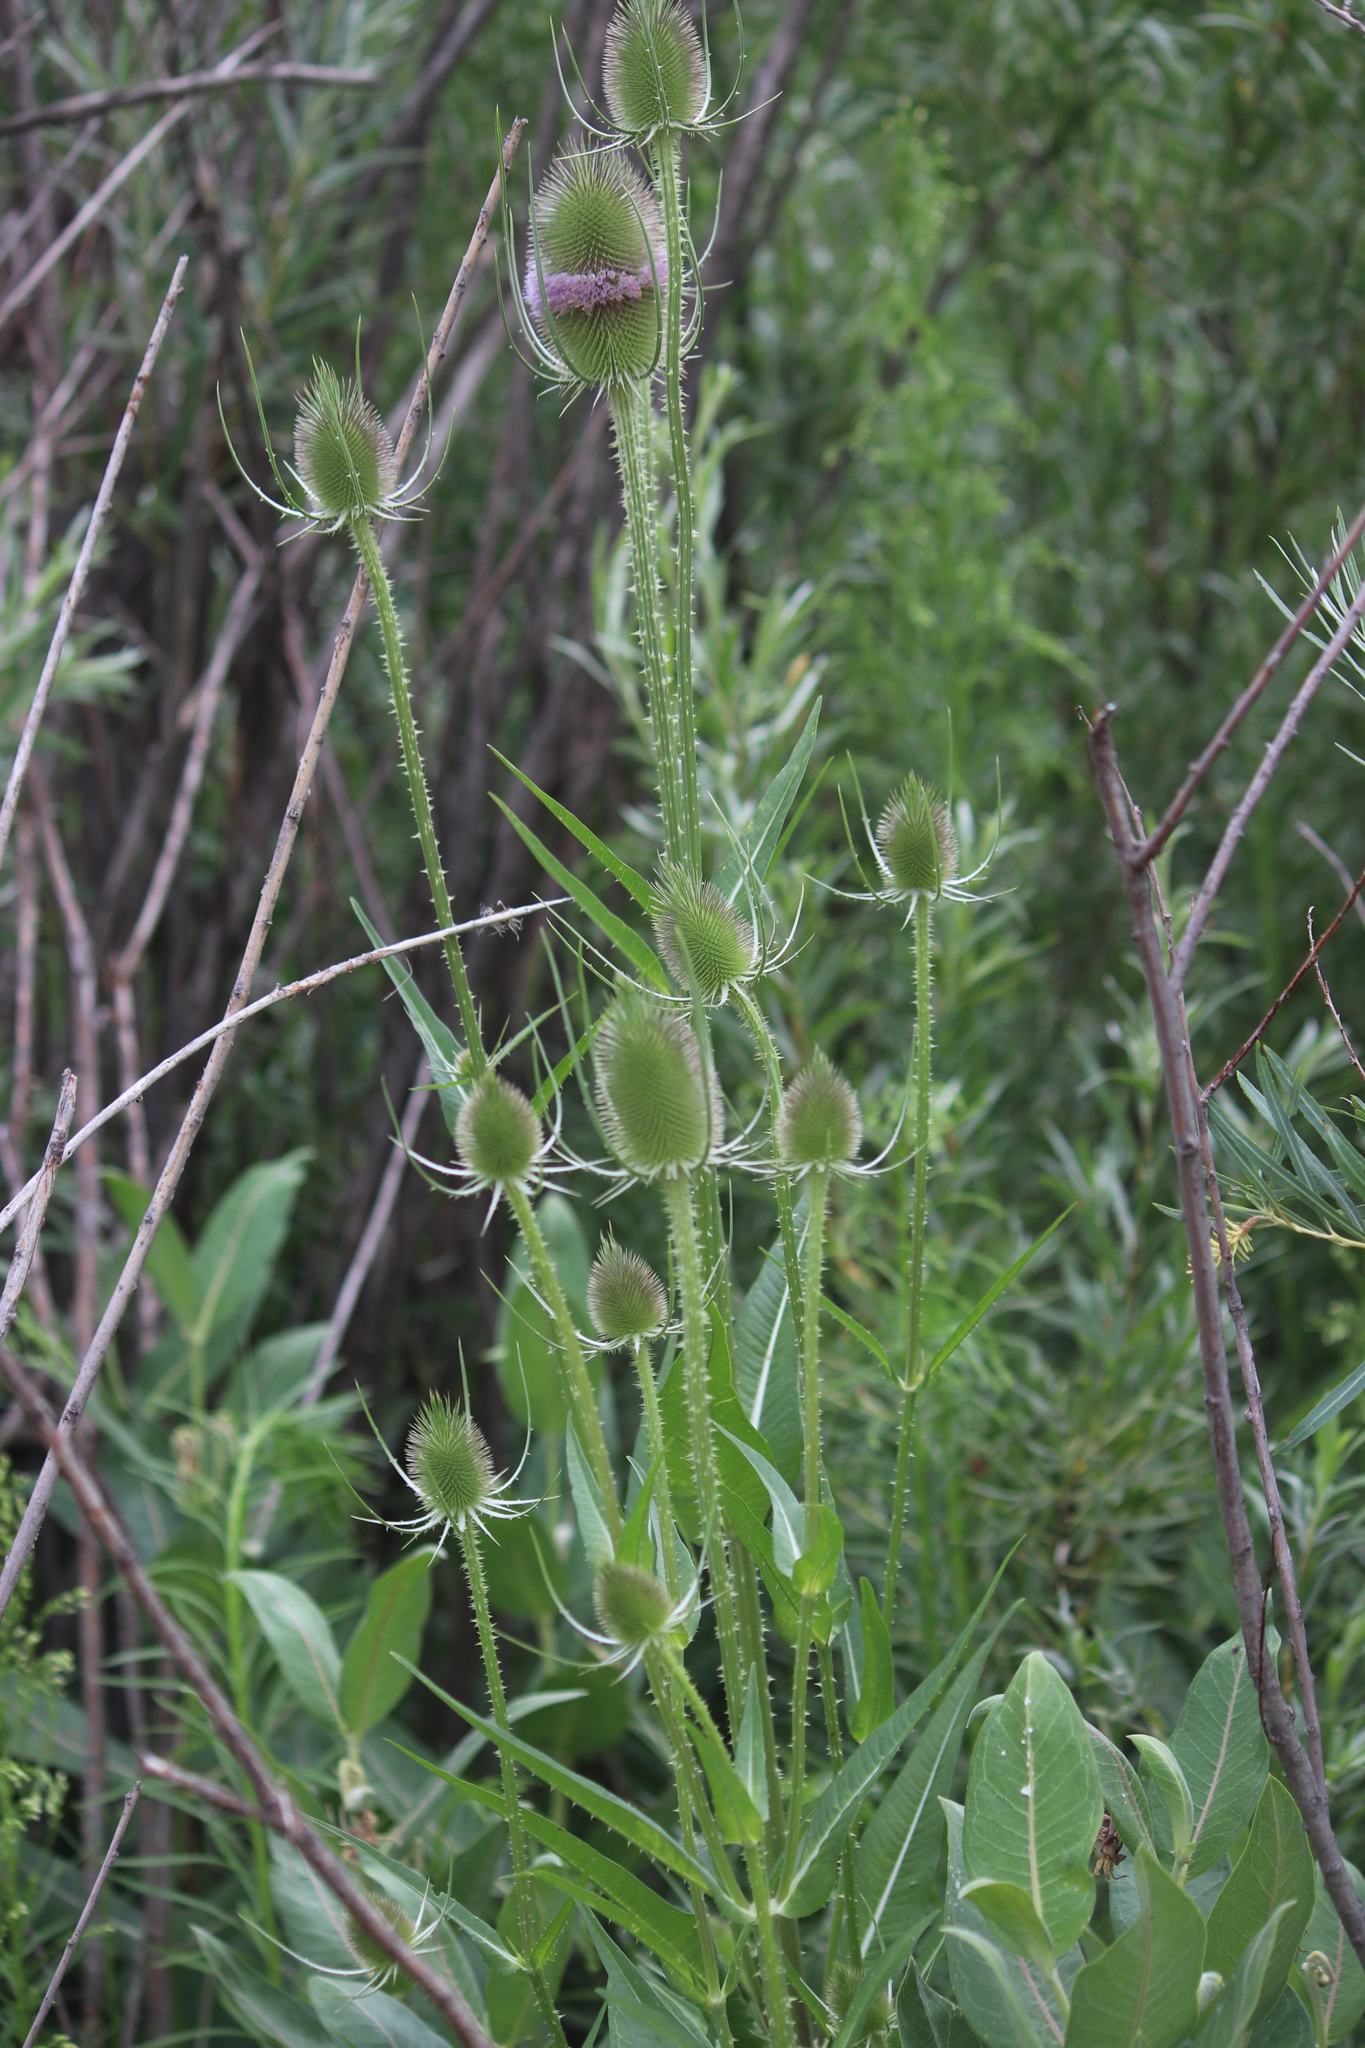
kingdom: Plantae
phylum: Tracheophyta
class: Magnoliopsida
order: Dipsacales
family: Caprifoliaceae
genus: Dipsacus
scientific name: Dipsacus fullonum
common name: Teasel
